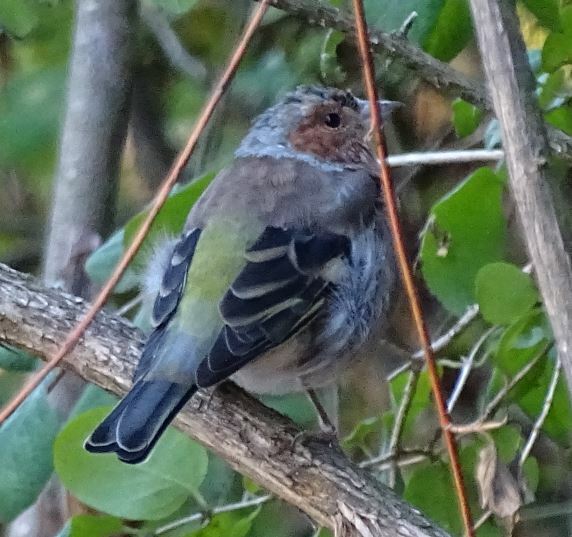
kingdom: Animalia
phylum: Chordata
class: Aves
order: Passeriformes
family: Fringillidae
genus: Fringilla
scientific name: Fringilla coelebs
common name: Common chaffinch
